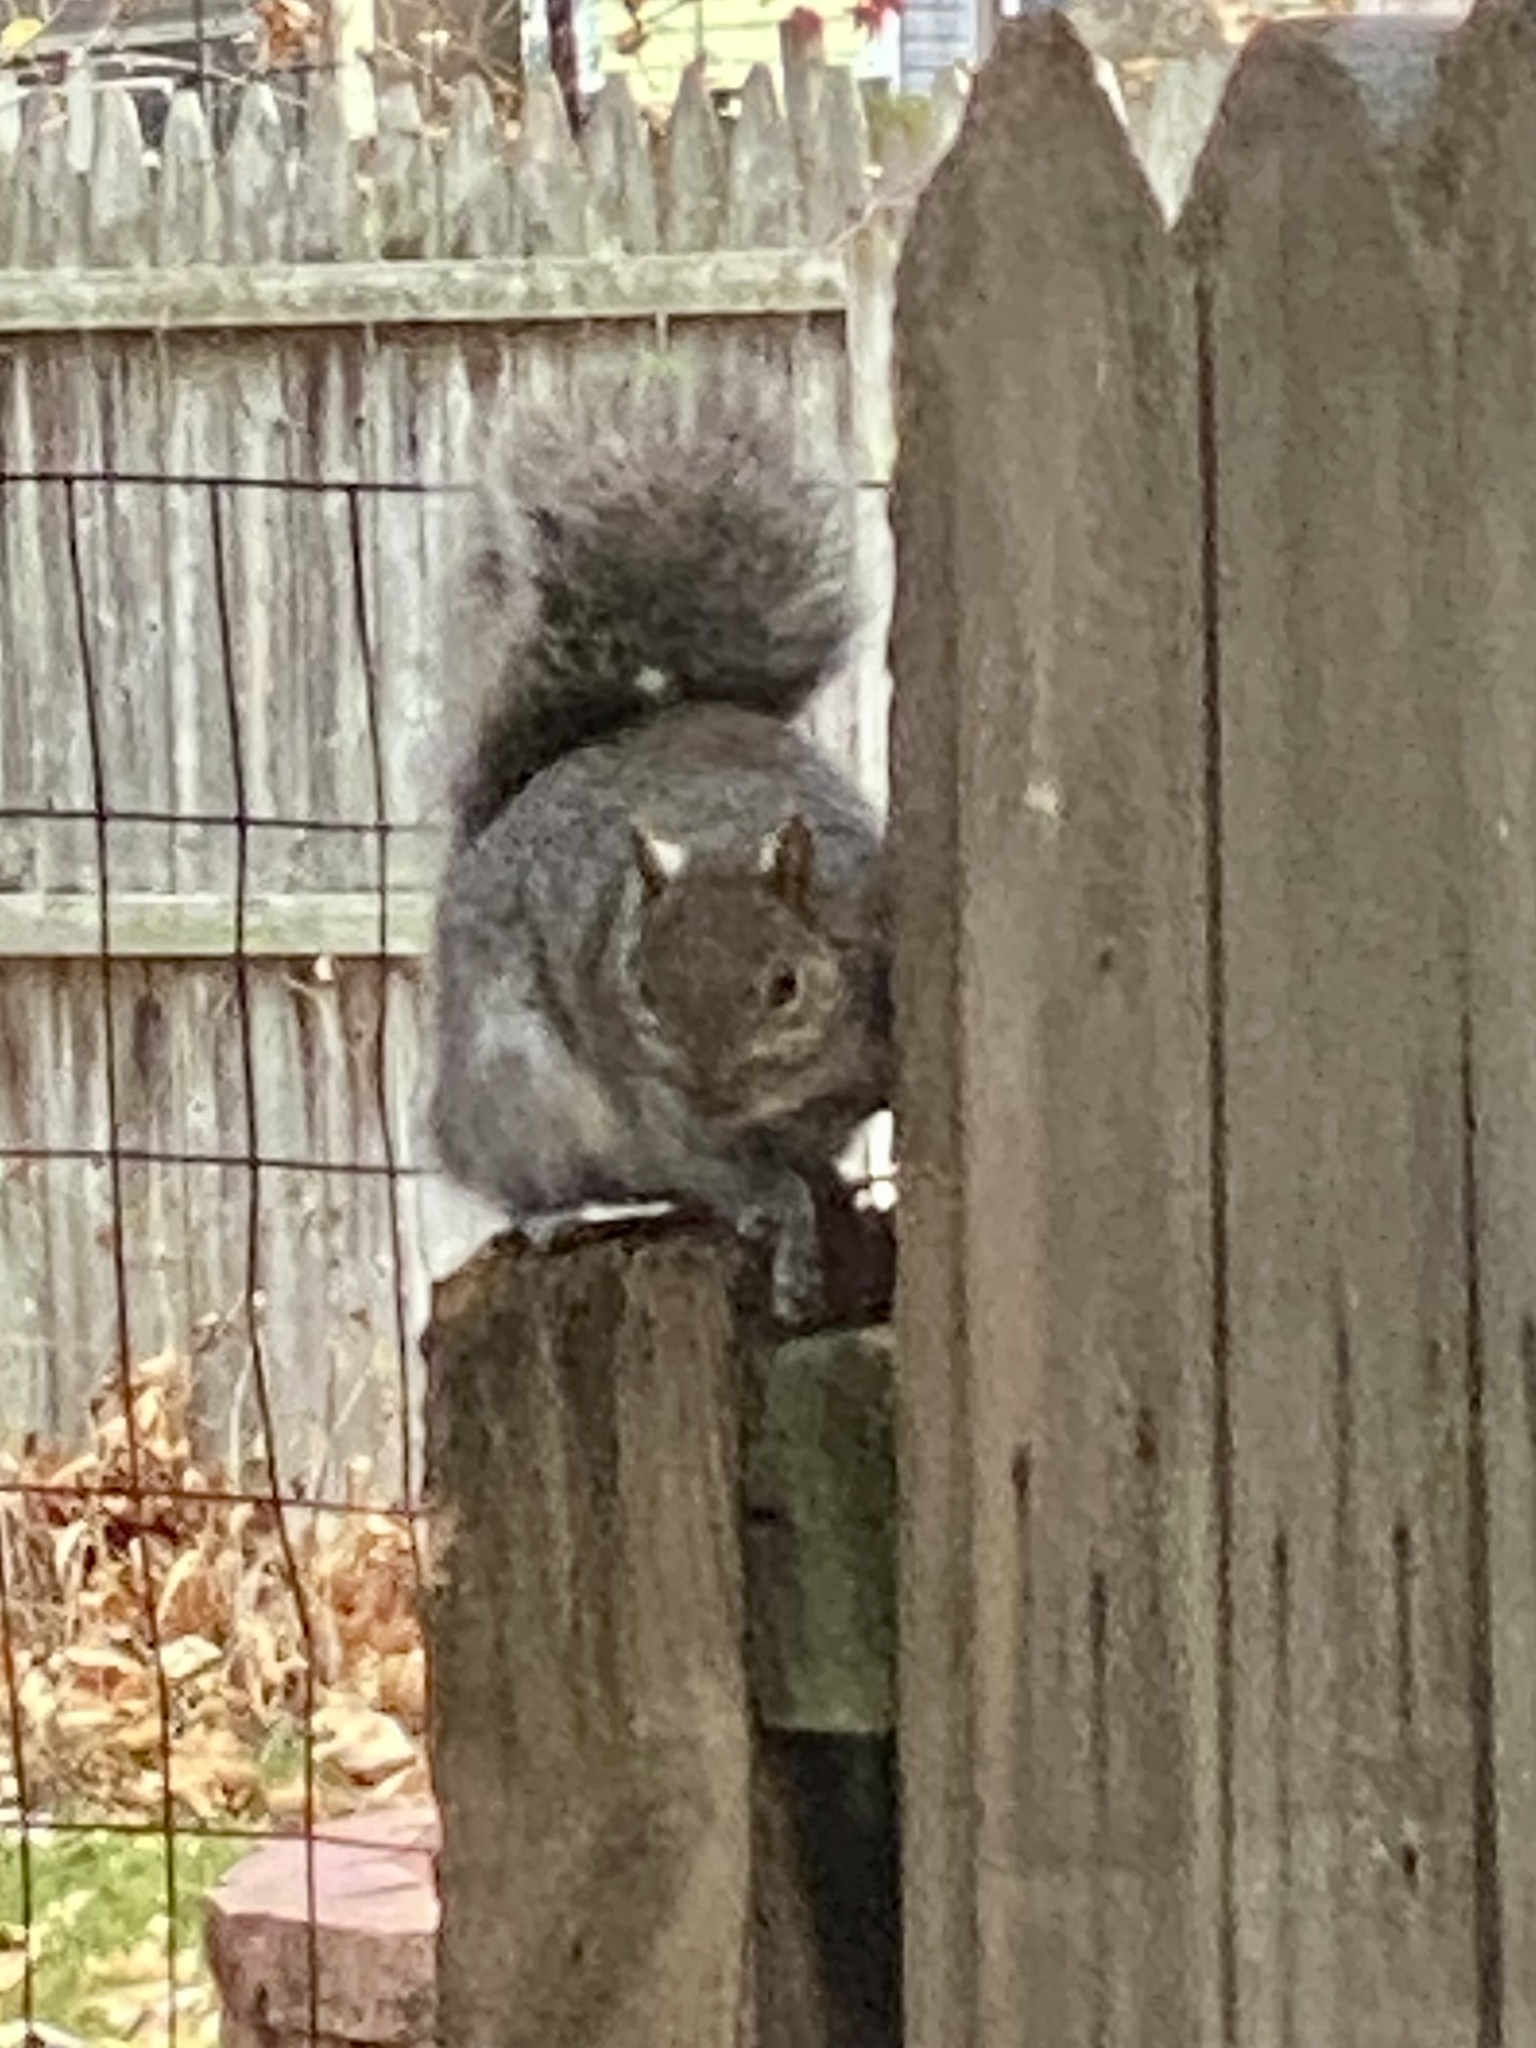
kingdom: Animalia
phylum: Chordata
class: Mammalia
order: Rodentia
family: Sciuridae
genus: Sciurus
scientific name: Sciurus carolinensis
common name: Eastern gray squirrel
